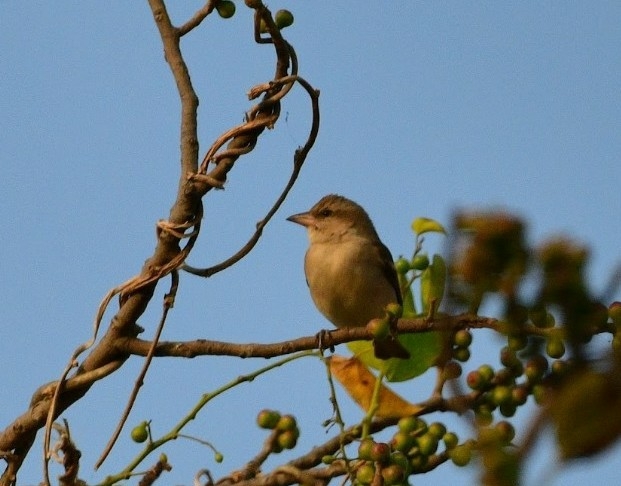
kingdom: Animalia
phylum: Chordata
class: Aves
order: Passeriformes
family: Passeridae
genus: Gymnoris
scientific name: Gymnoris xanthocollis
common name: Yellow-throated sparrow
